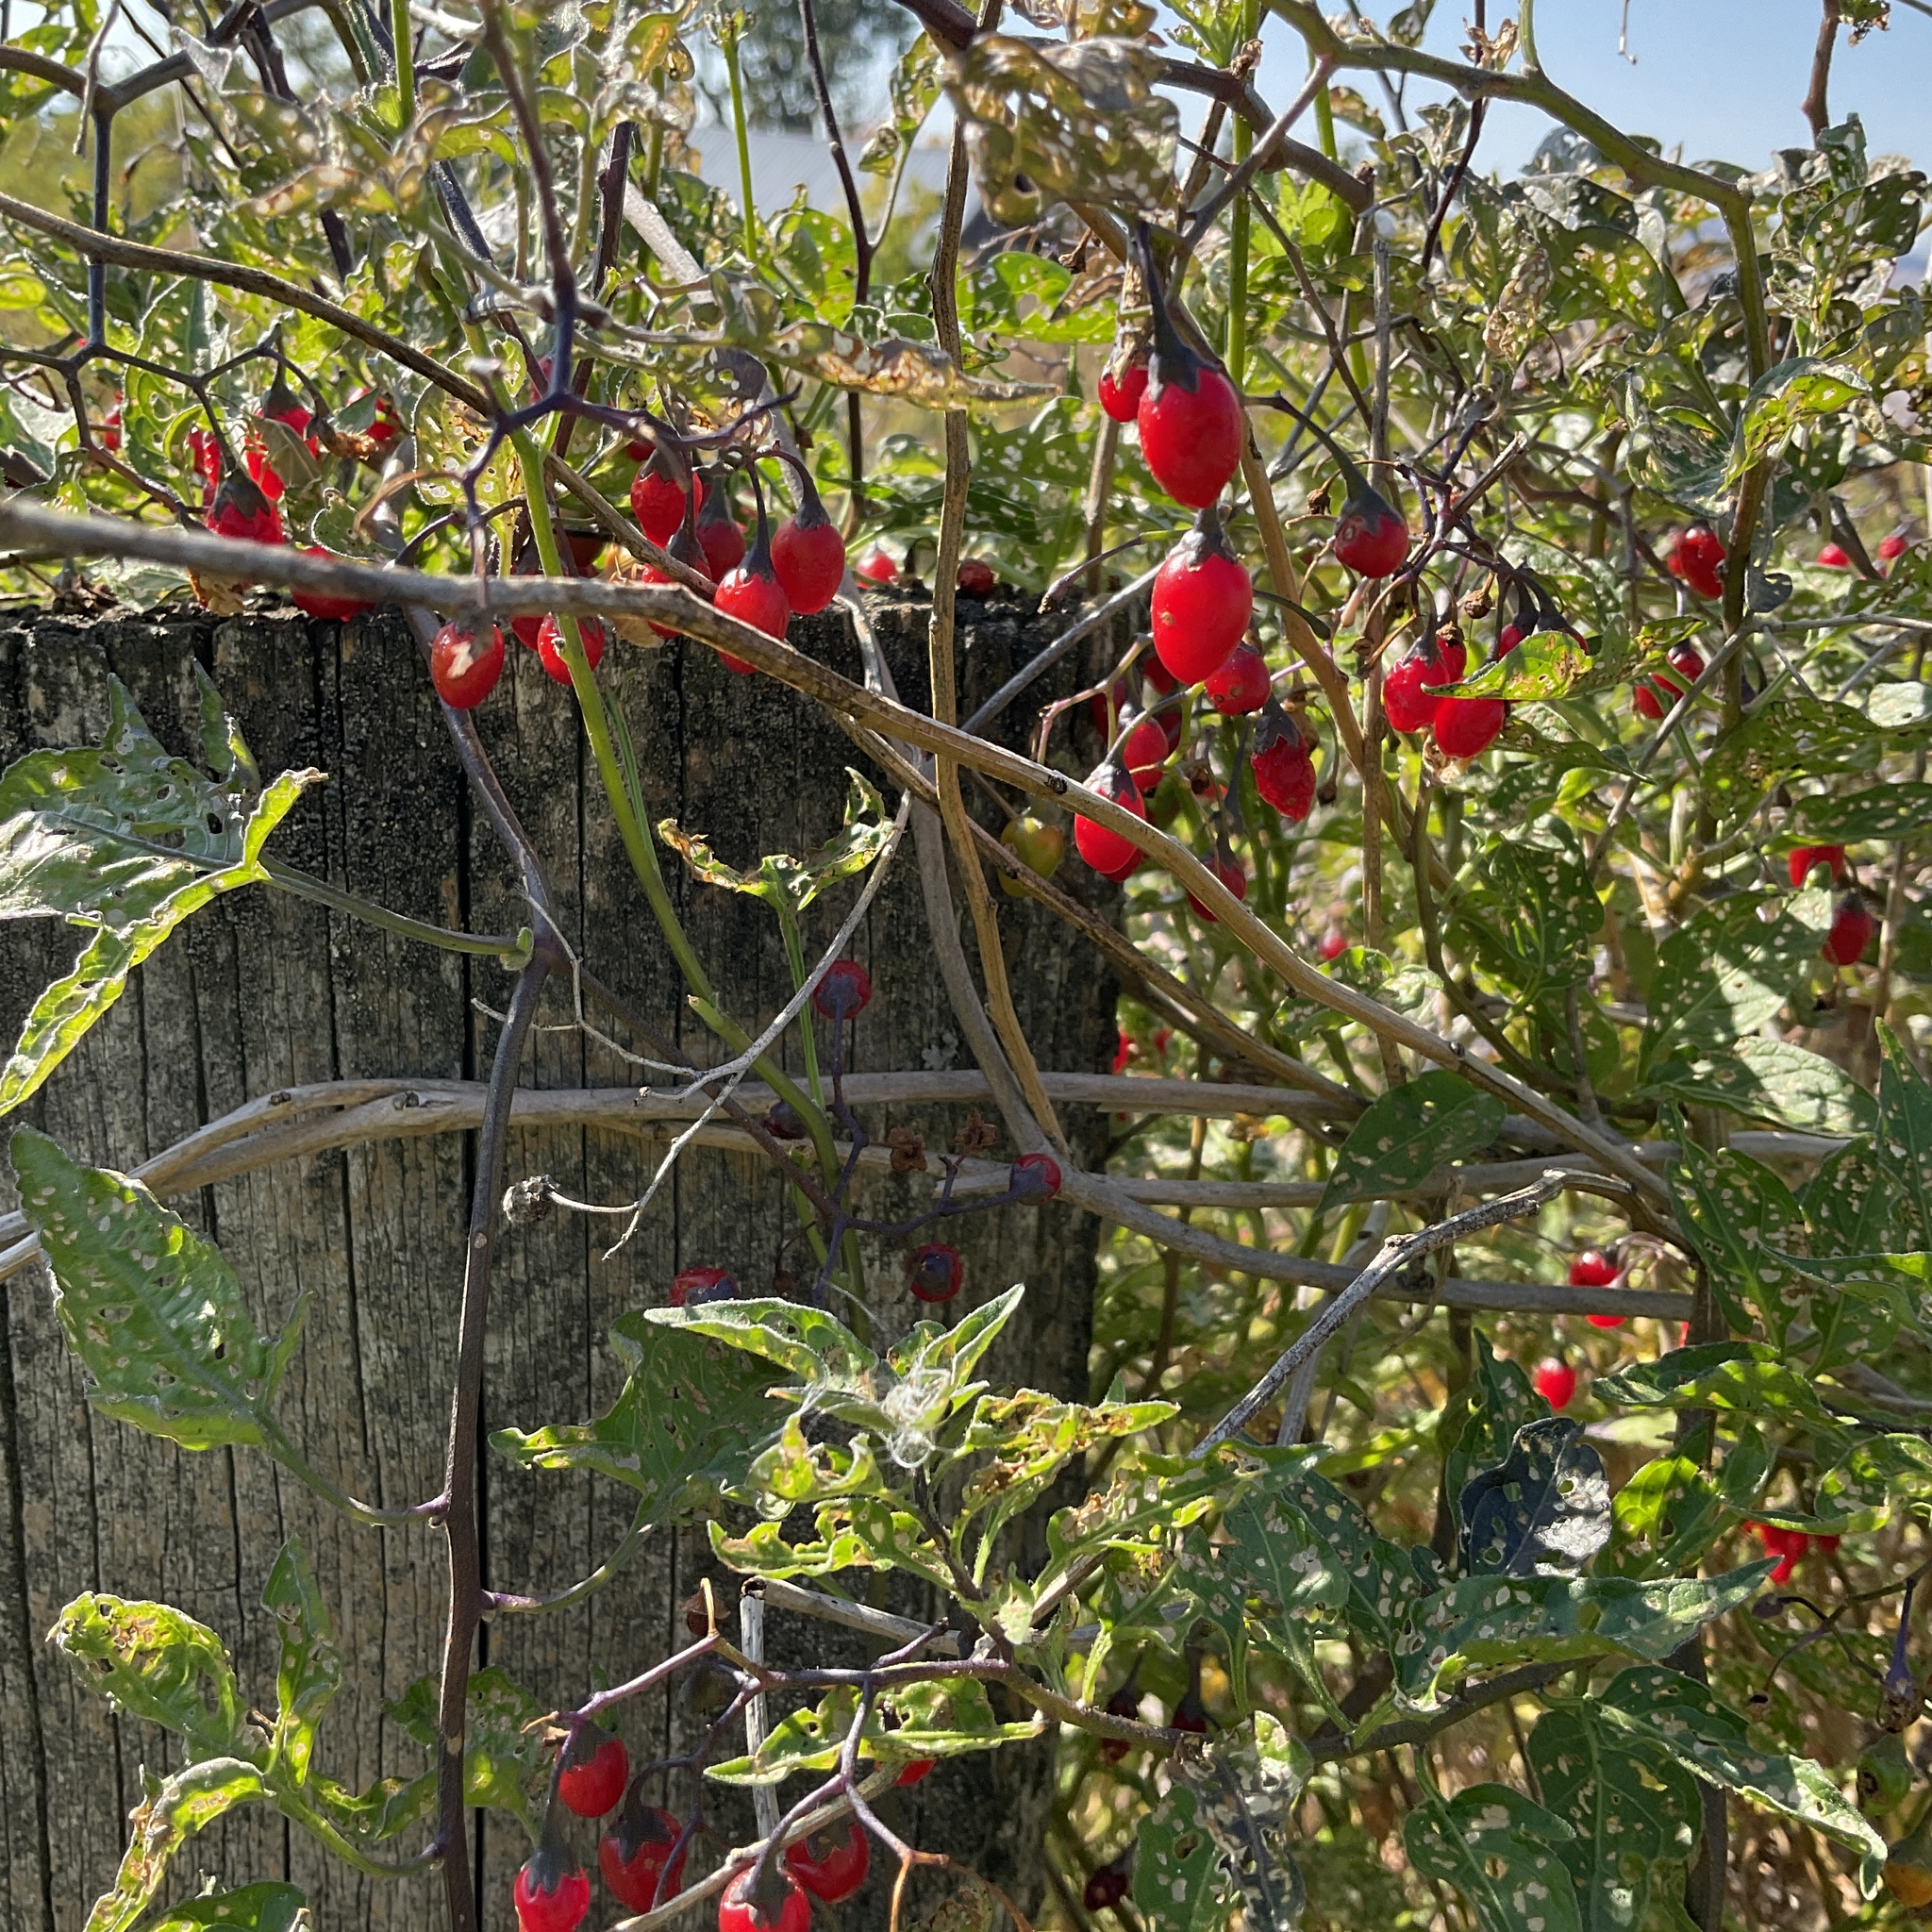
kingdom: Plantae
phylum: Tracheophyta
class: Magnoliopsida
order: Solanales
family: Solanaceae
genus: Solanum
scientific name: Solanum dulcamara
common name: Climbing nightshade
